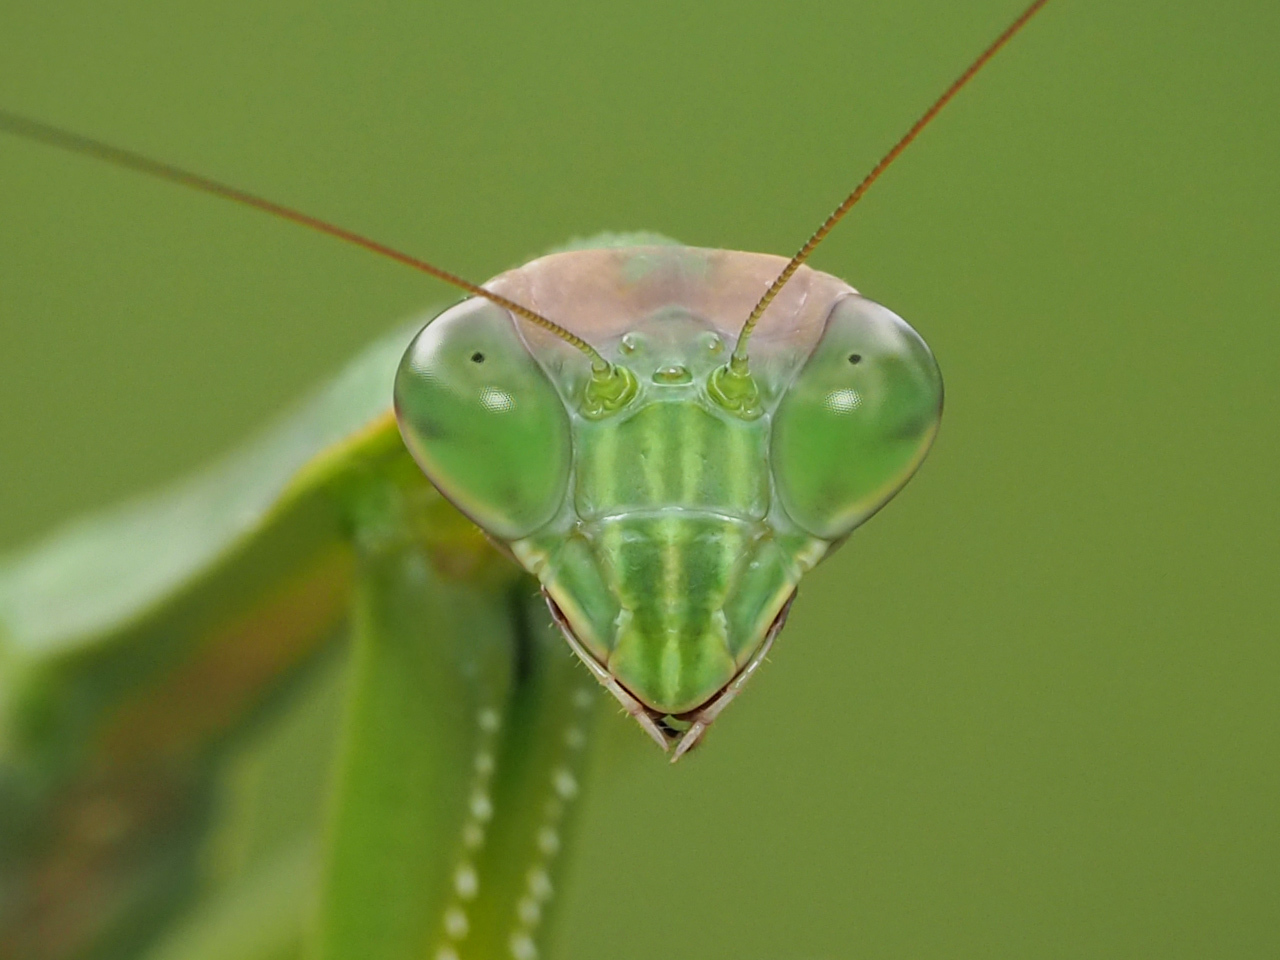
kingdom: Animalia
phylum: Arthropoda
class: Insecta
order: Mantodea
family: Mantidae
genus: Tenodera
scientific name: Tenodera sinensis
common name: Chinese mantis
